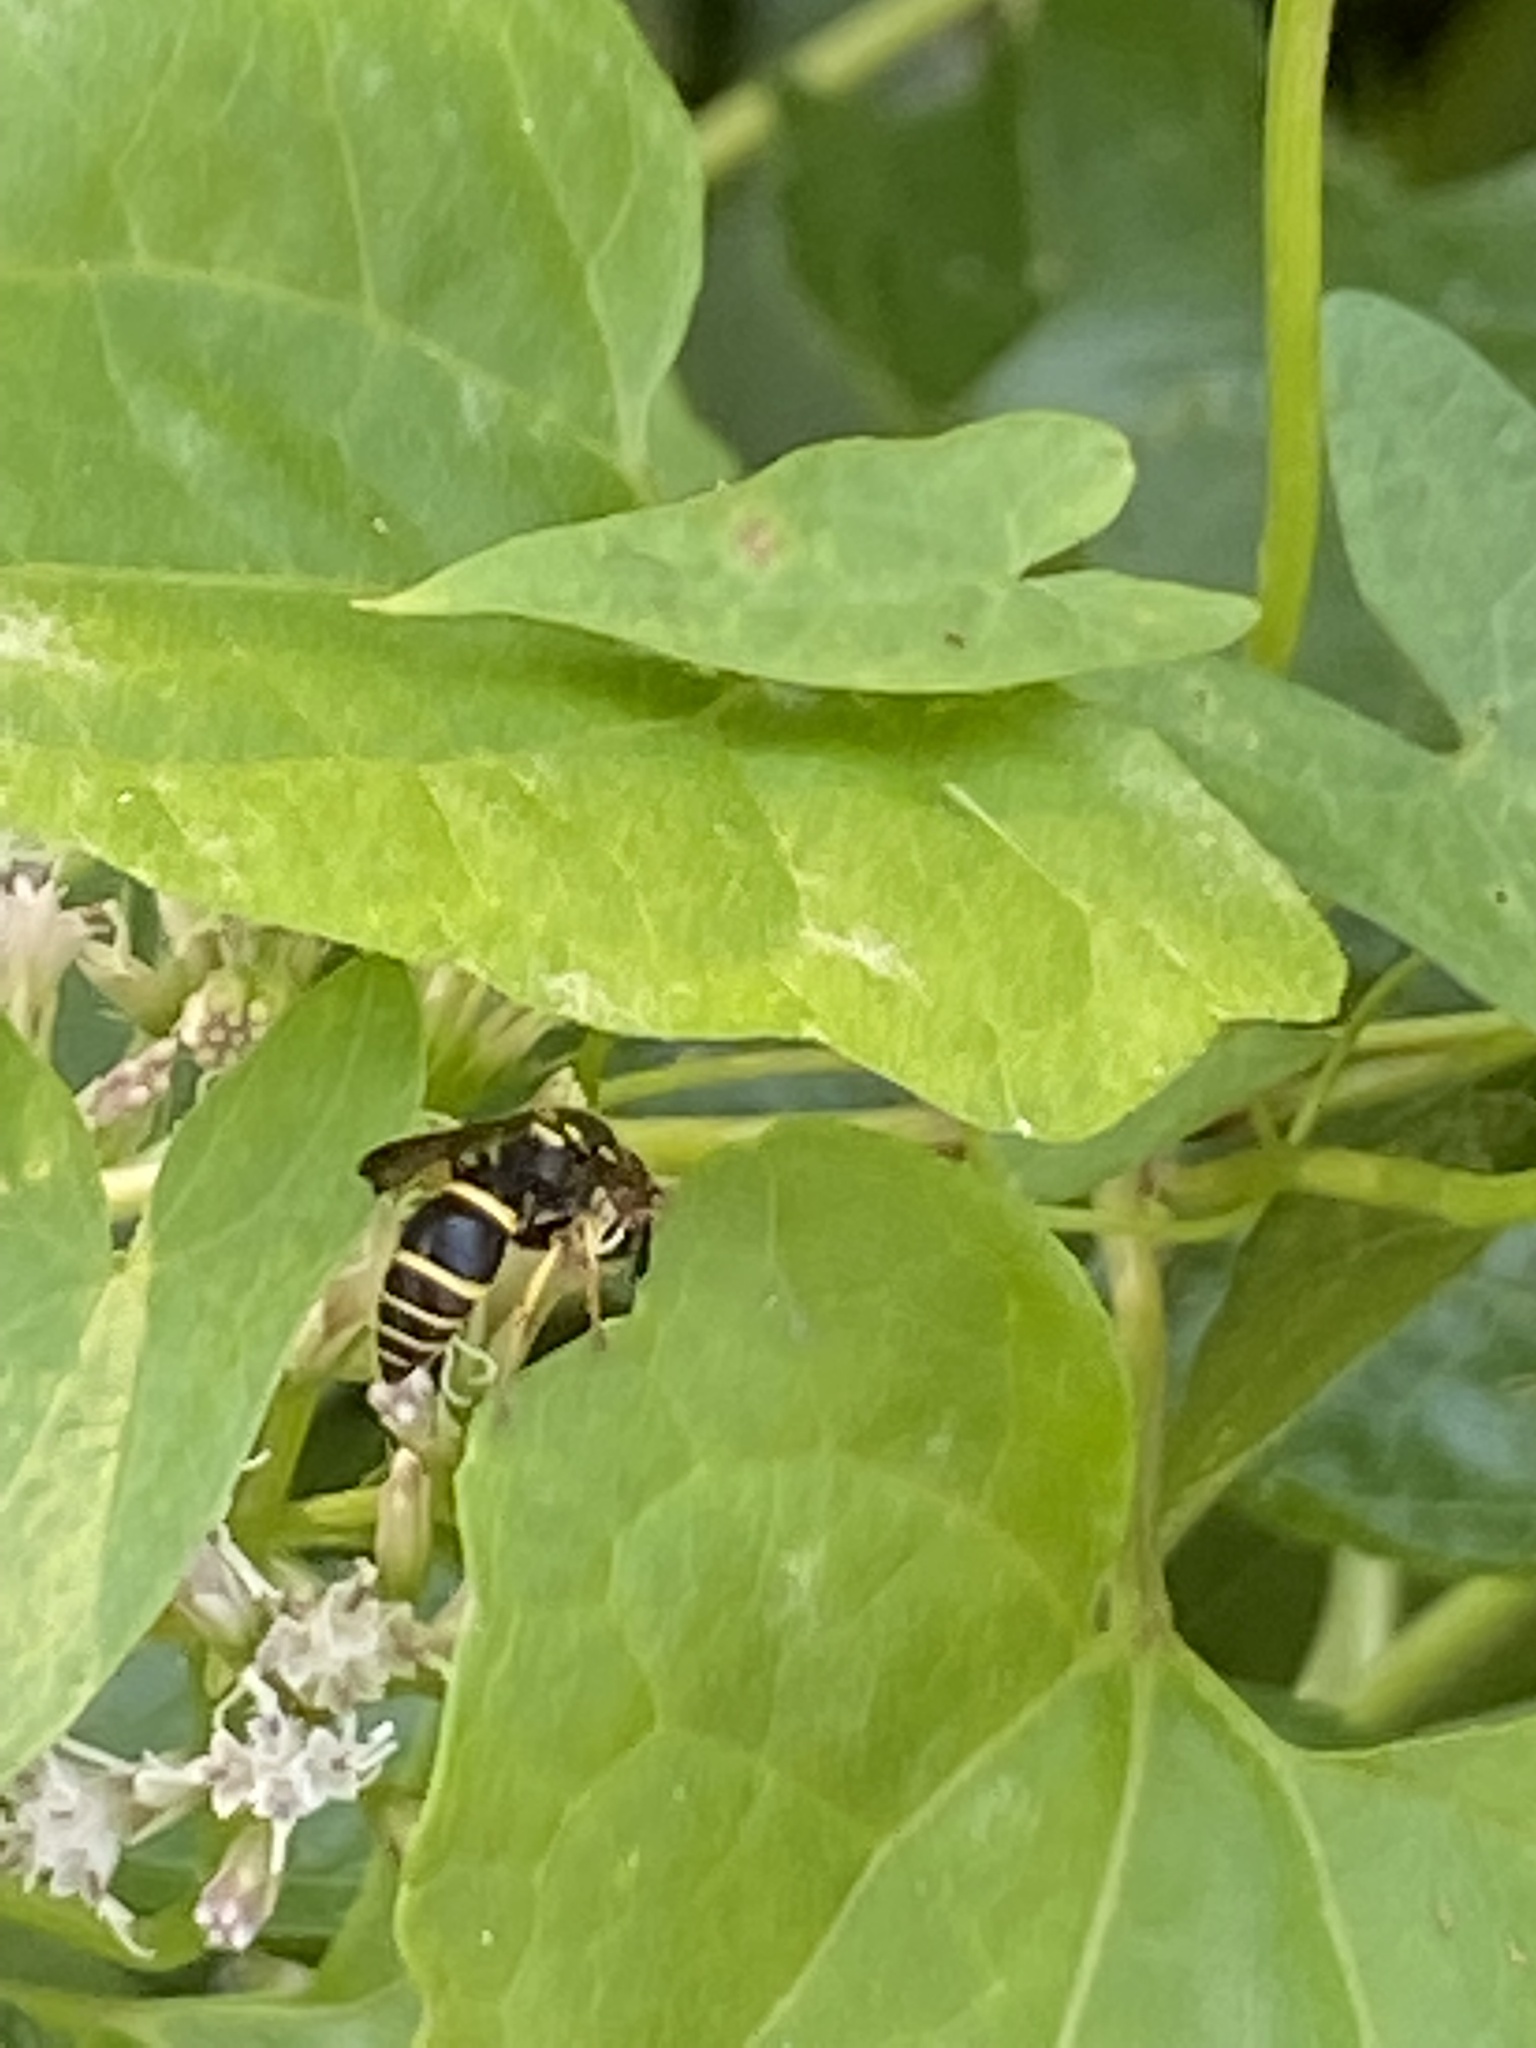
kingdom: Animalia
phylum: Arthropoda
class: Insecta
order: Hymenoptera
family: Vespidae
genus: Ancistrocerus
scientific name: Ancistrocerus adiabatus
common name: Bramble mason wasp
